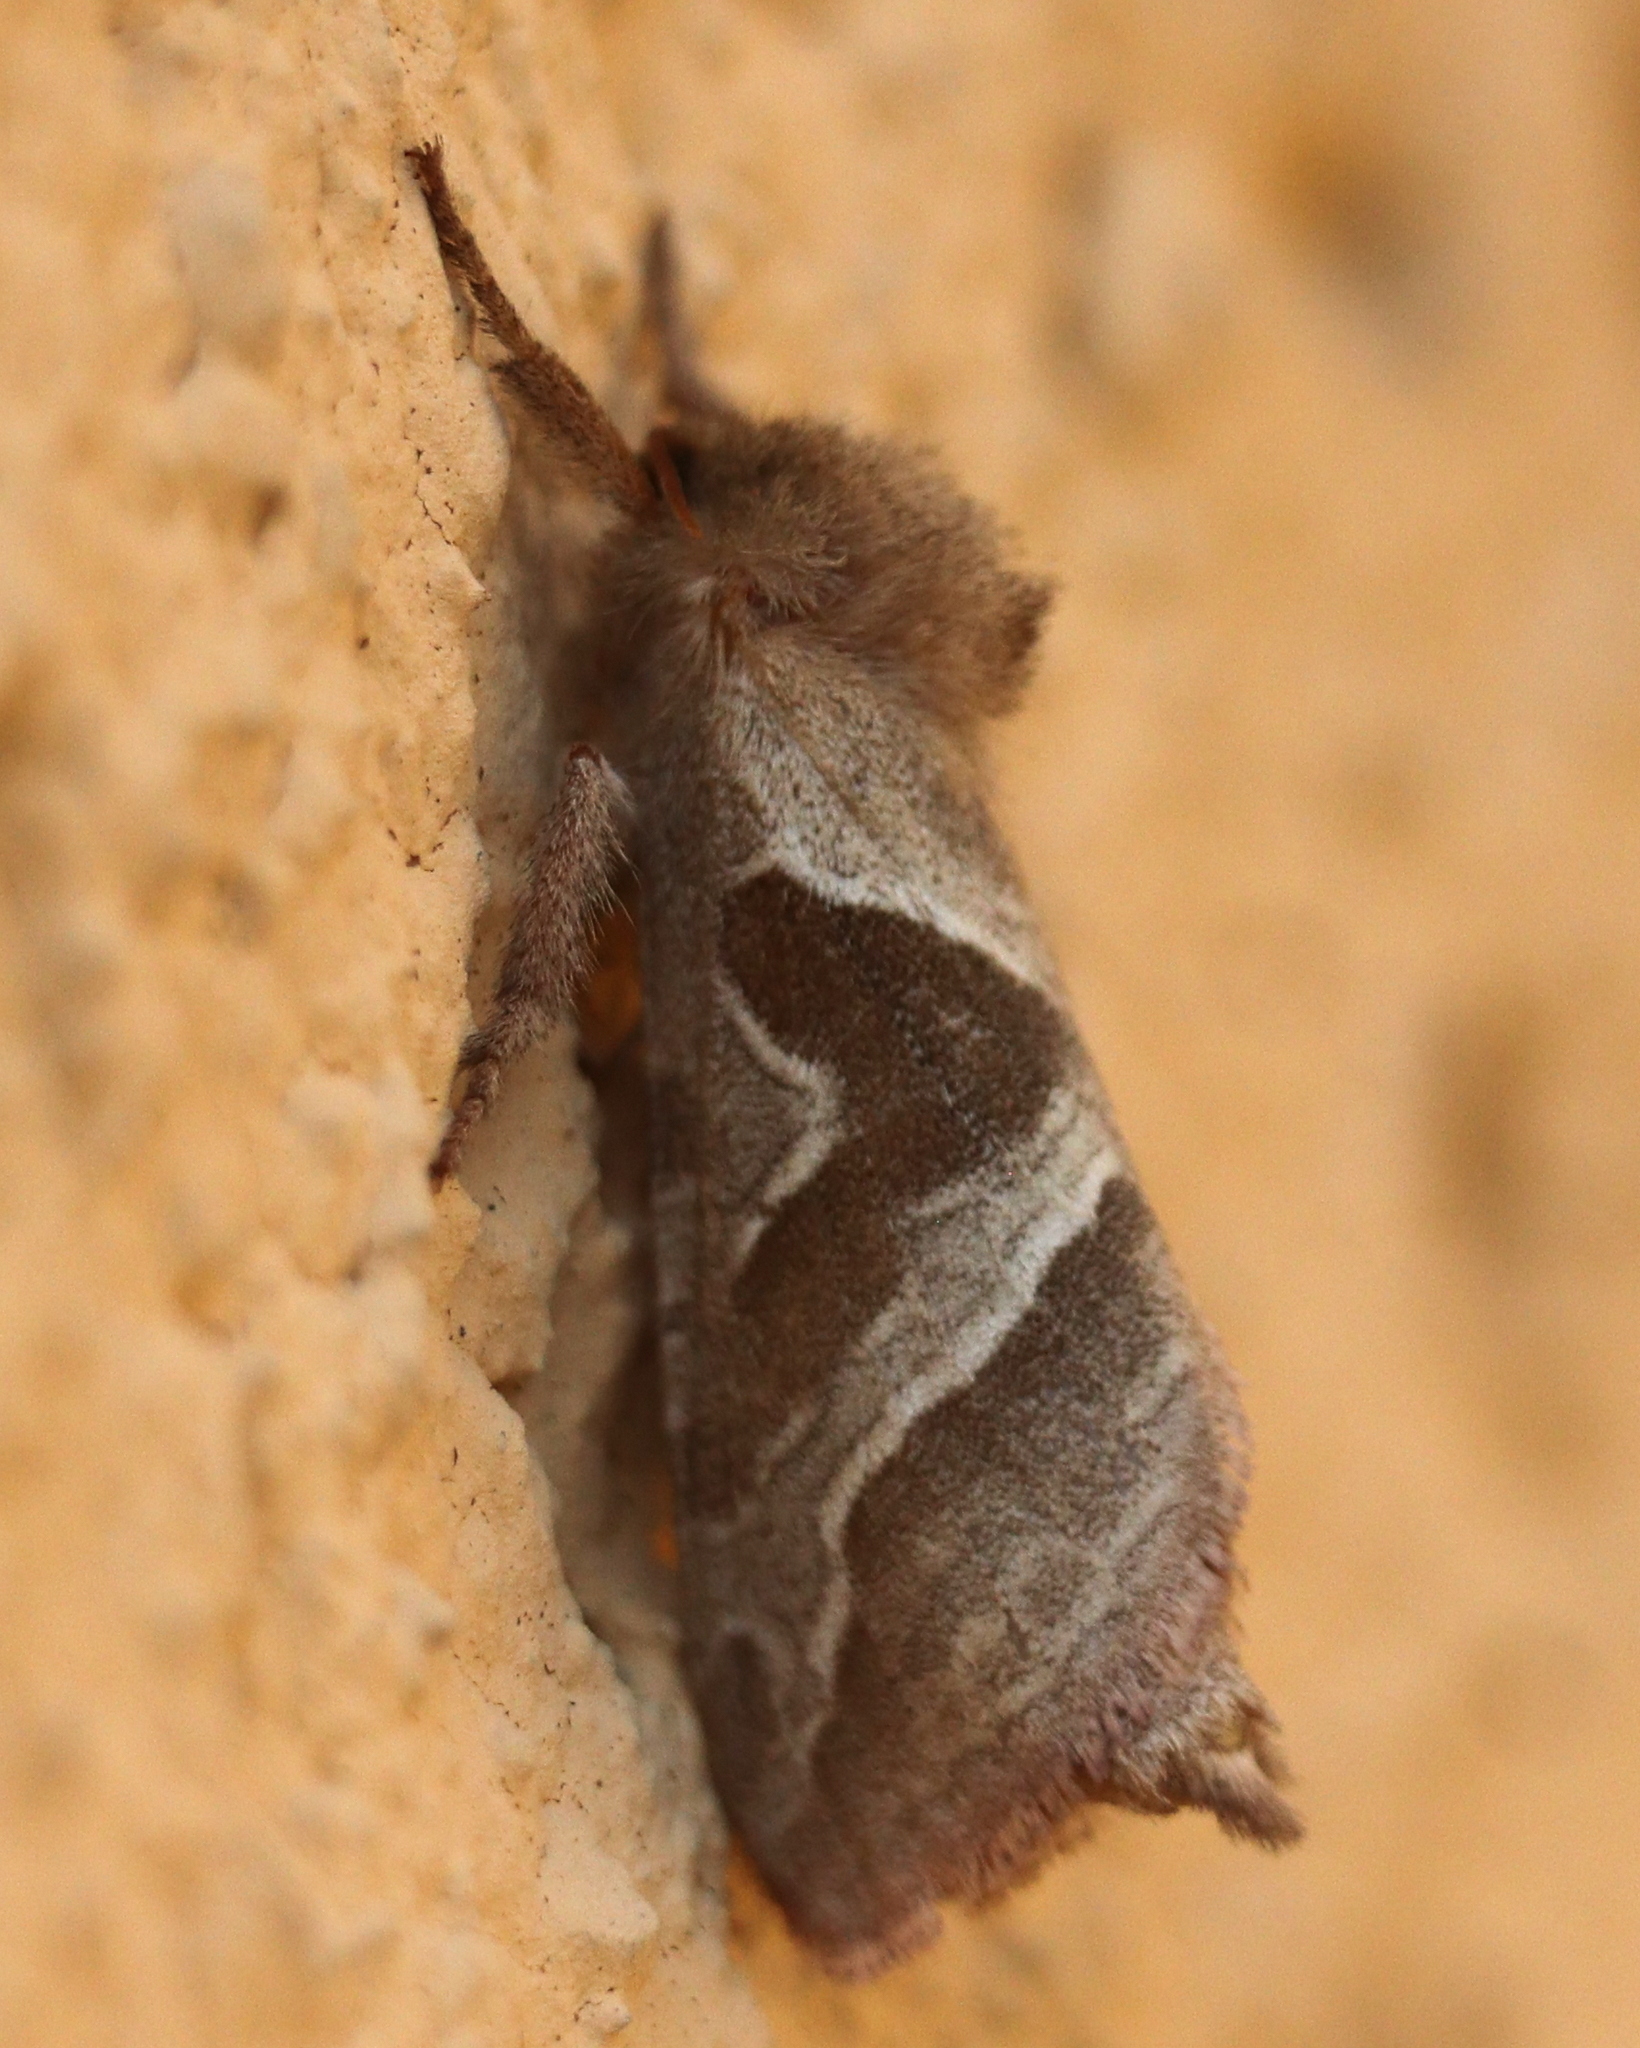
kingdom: Animalia
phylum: Arthropoda
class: Insecta
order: Lepidoptera
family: Hepialidae
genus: Triodia
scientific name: Triodia sylvina
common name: Orange swift
